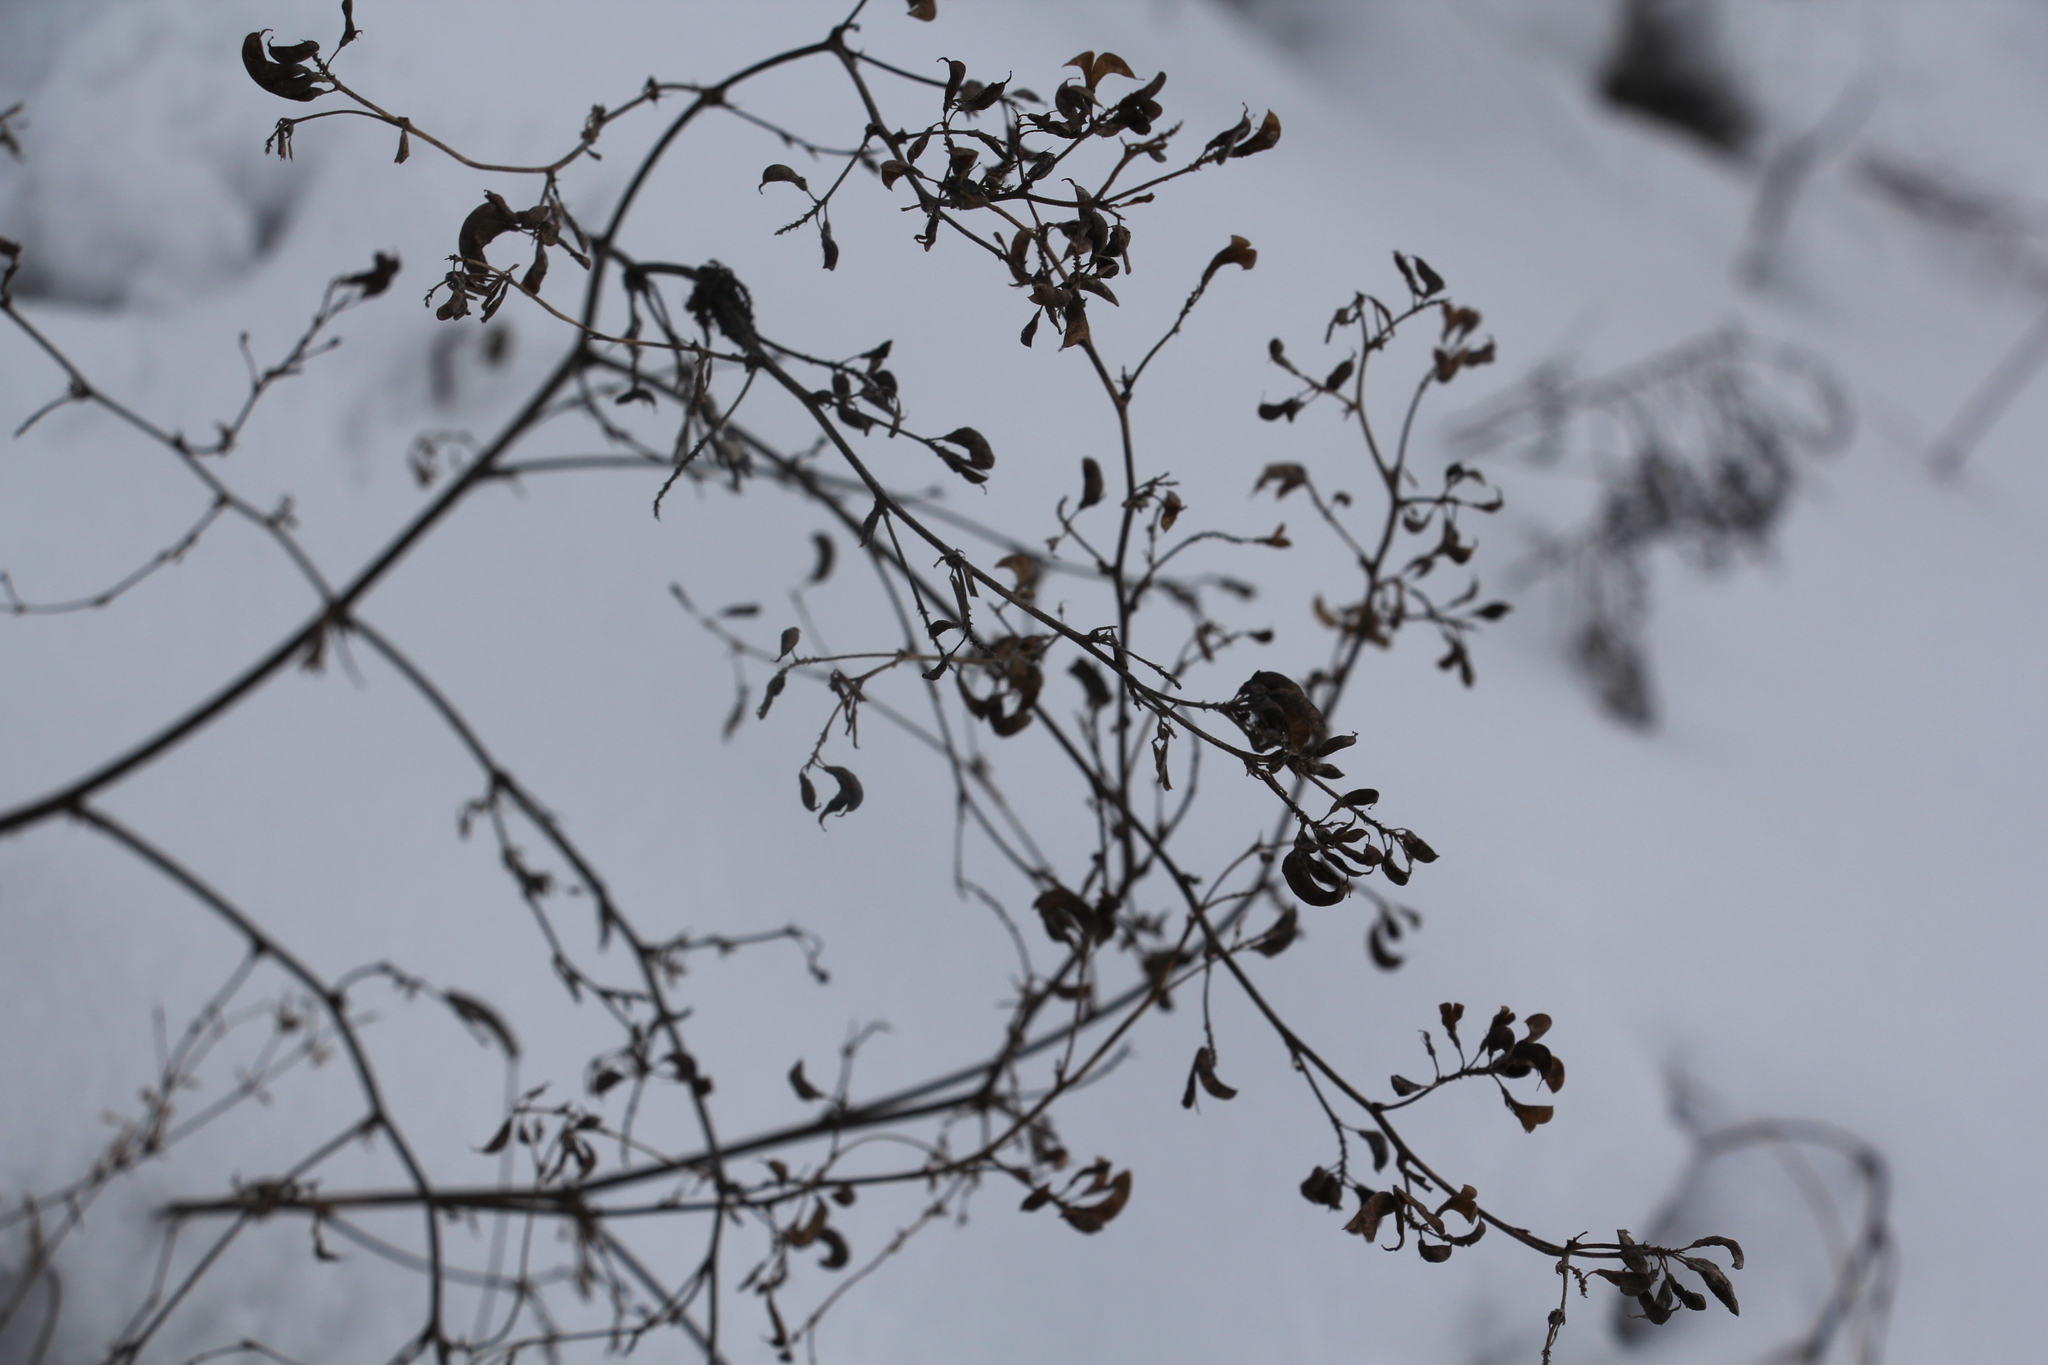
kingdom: Plantae
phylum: Tracheophyta
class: Magnoliopsida
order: Fabales
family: Fabaceae
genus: Medicago
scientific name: Medicago falcata
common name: Sickle medick
